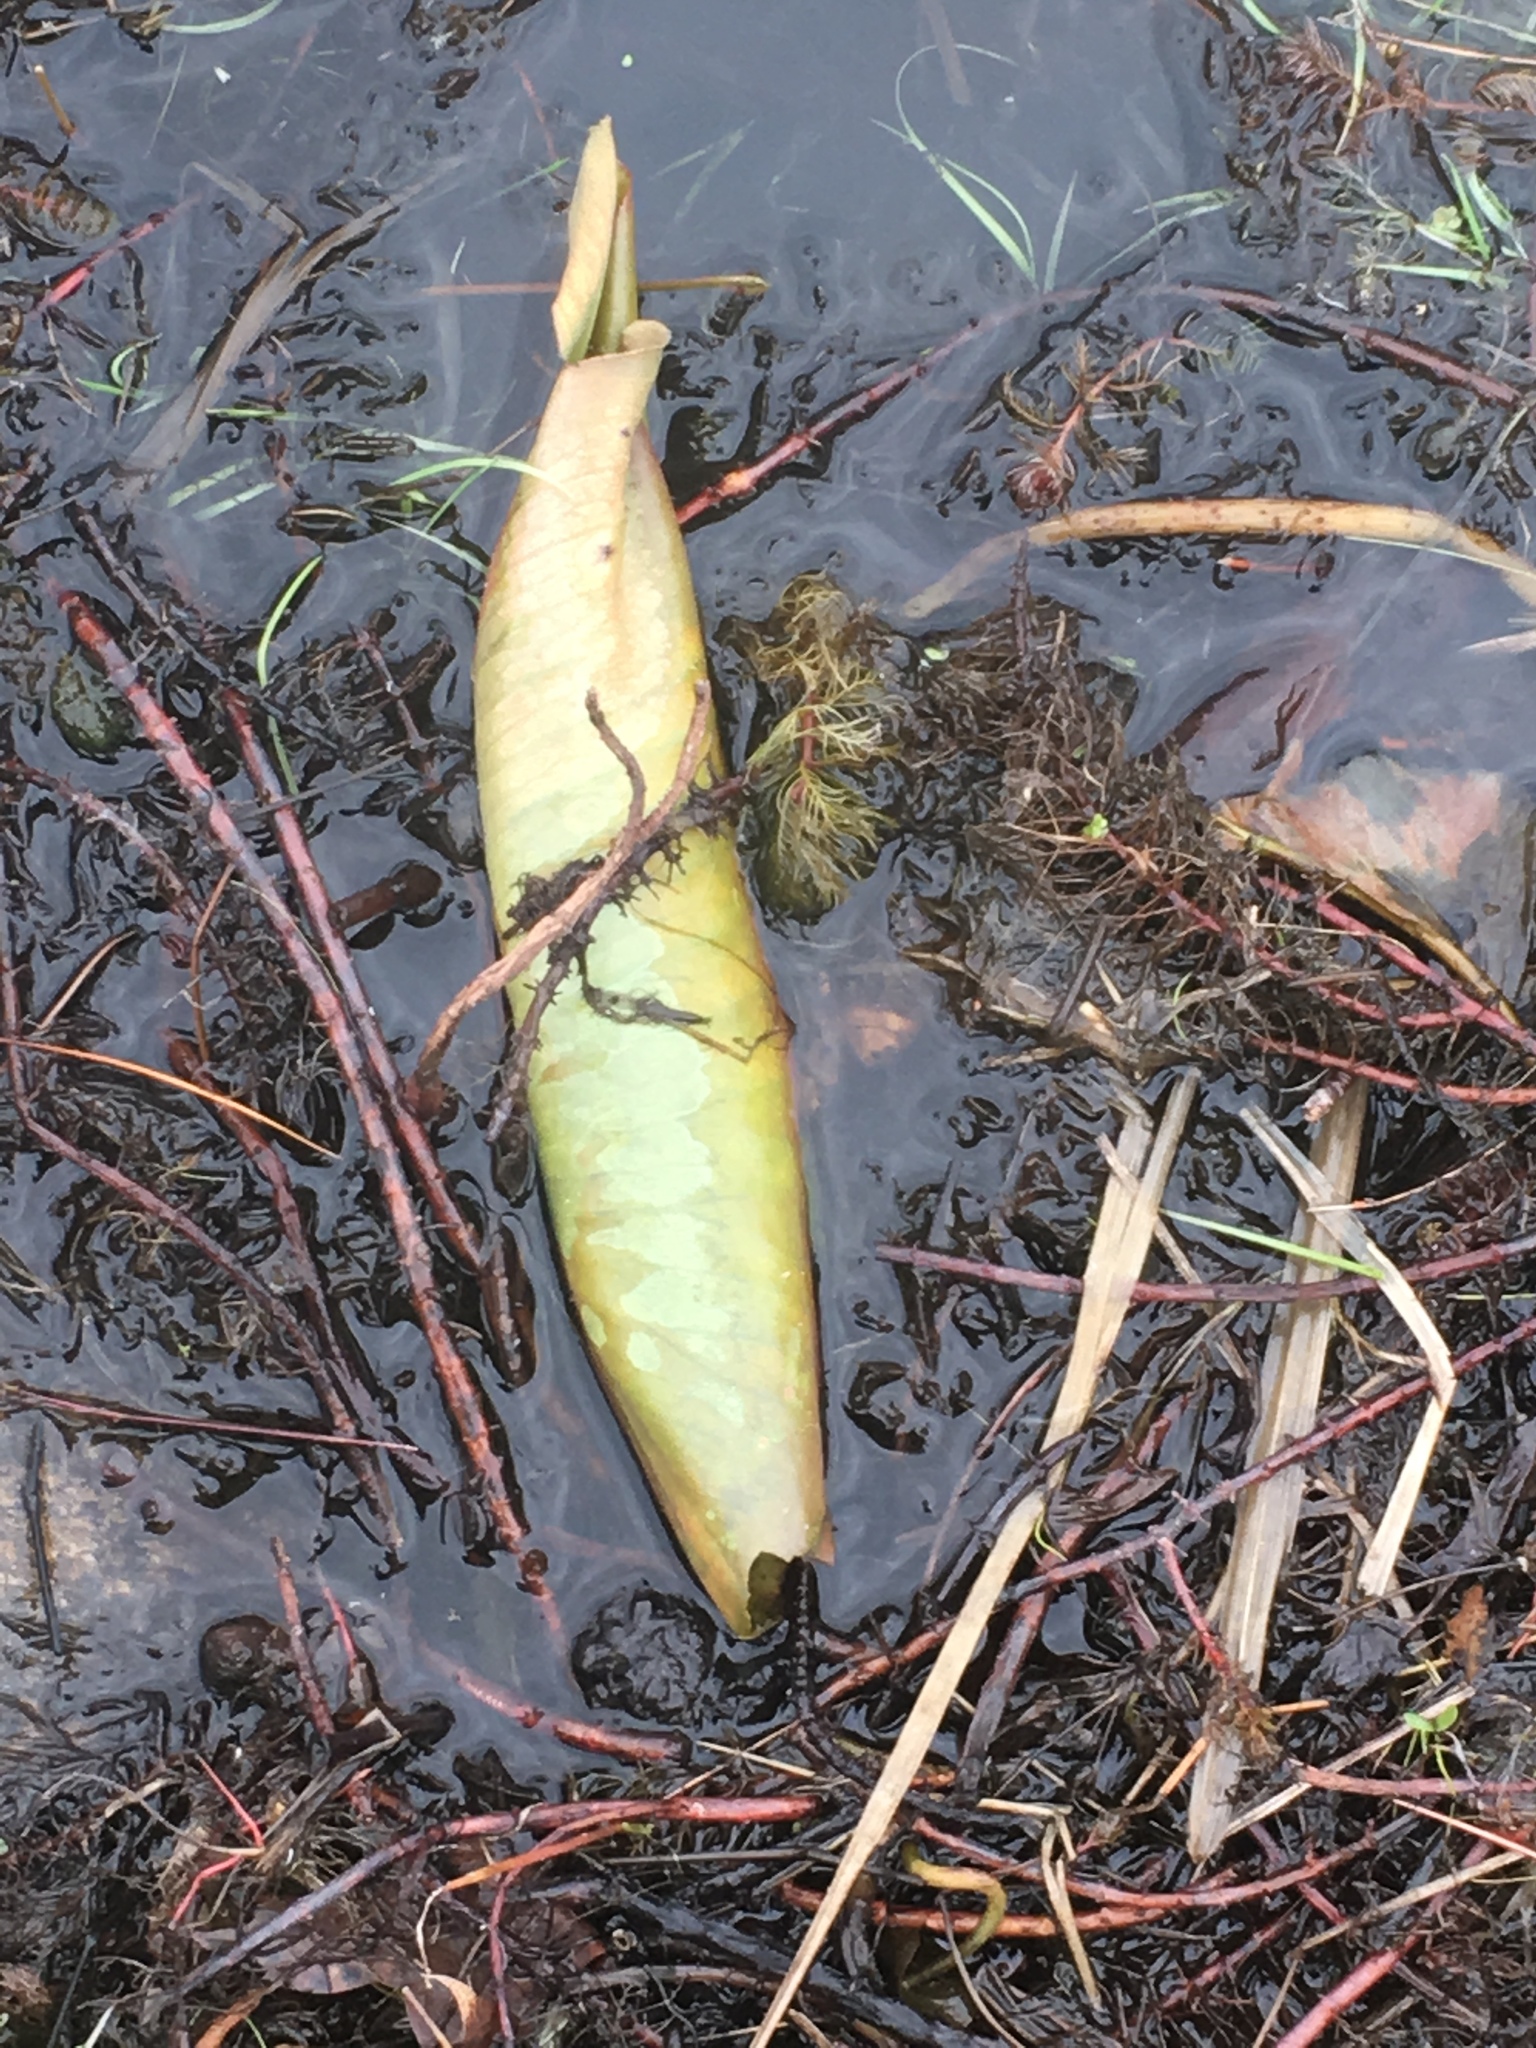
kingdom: Plantae
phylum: Tracheophyta
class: Magnoliopsida
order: Proteales
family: Nelumbonaceae
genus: Nelumbo
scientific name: Nelumbo lutea
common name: American lotus
